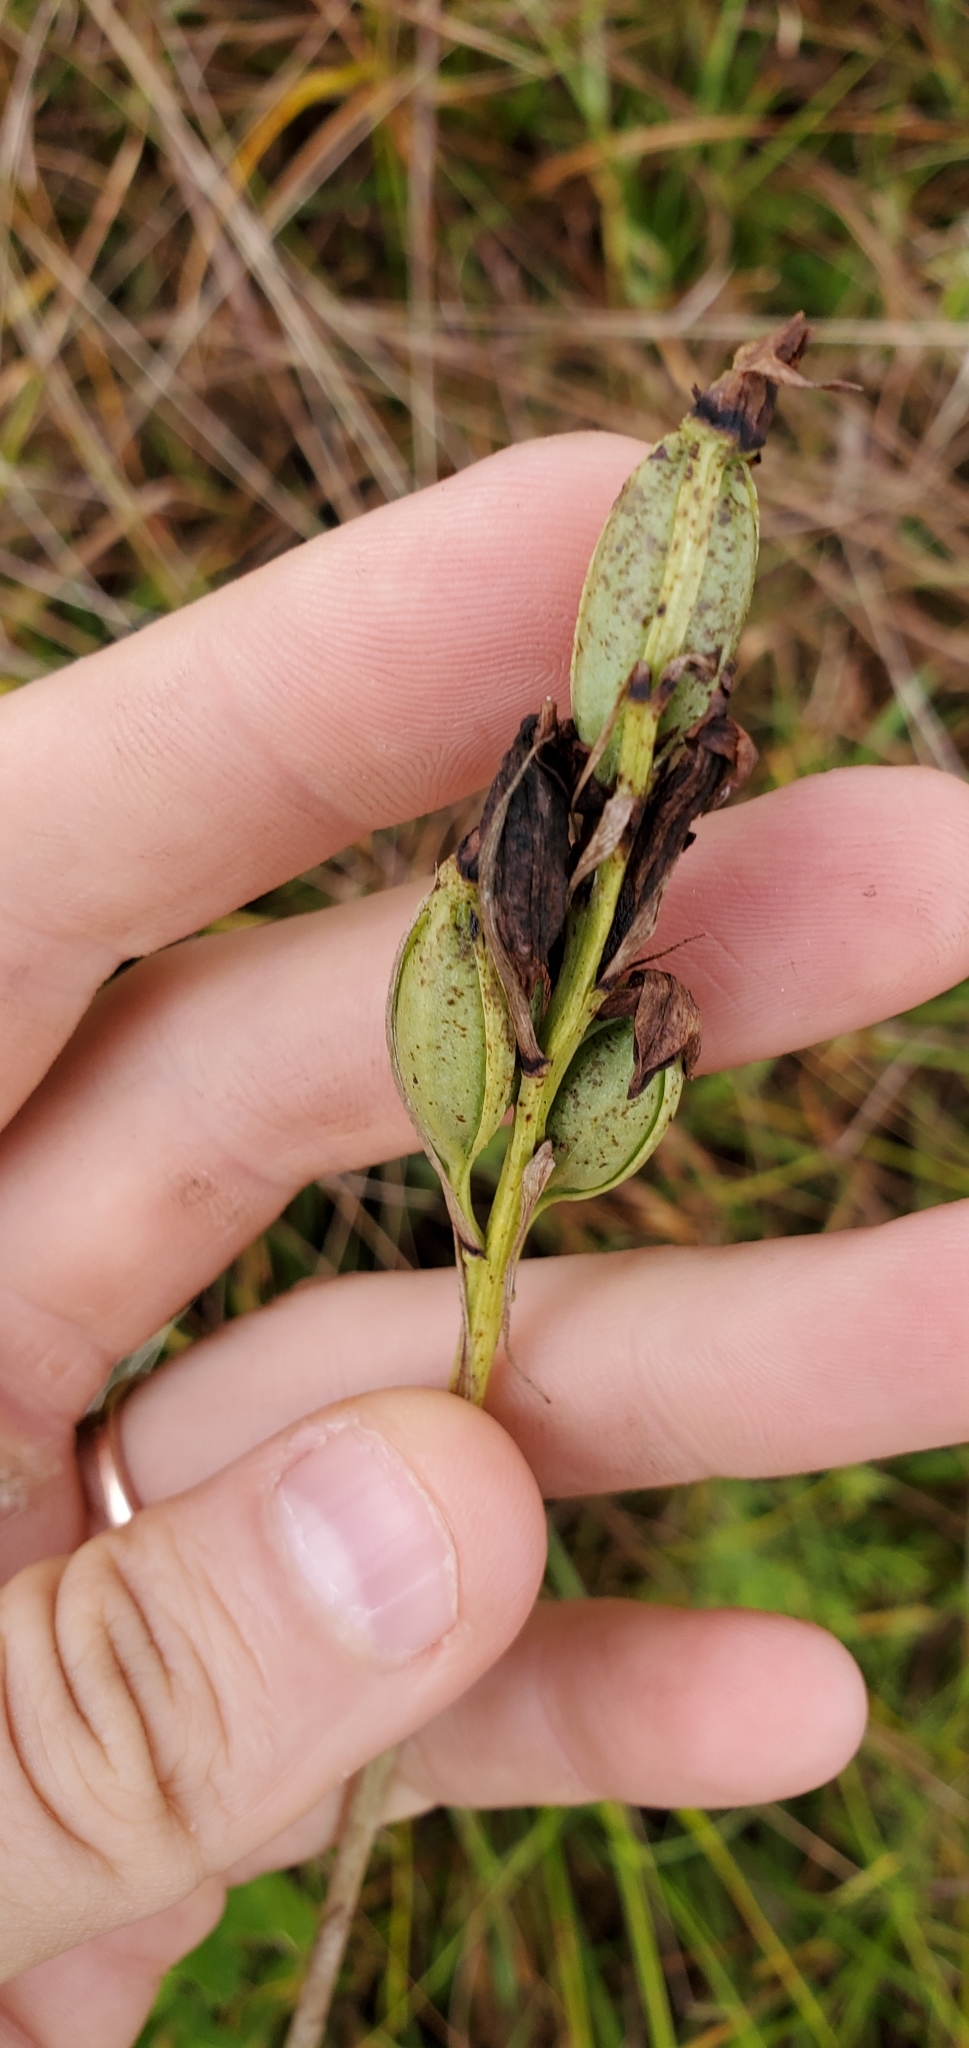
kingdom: Plantae
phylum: Tracheophyta
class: Liliopsida
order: Asparagales
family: Orchidaceae
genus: Eulophia
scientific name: Eulophia ecristata
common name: Giant orchid
